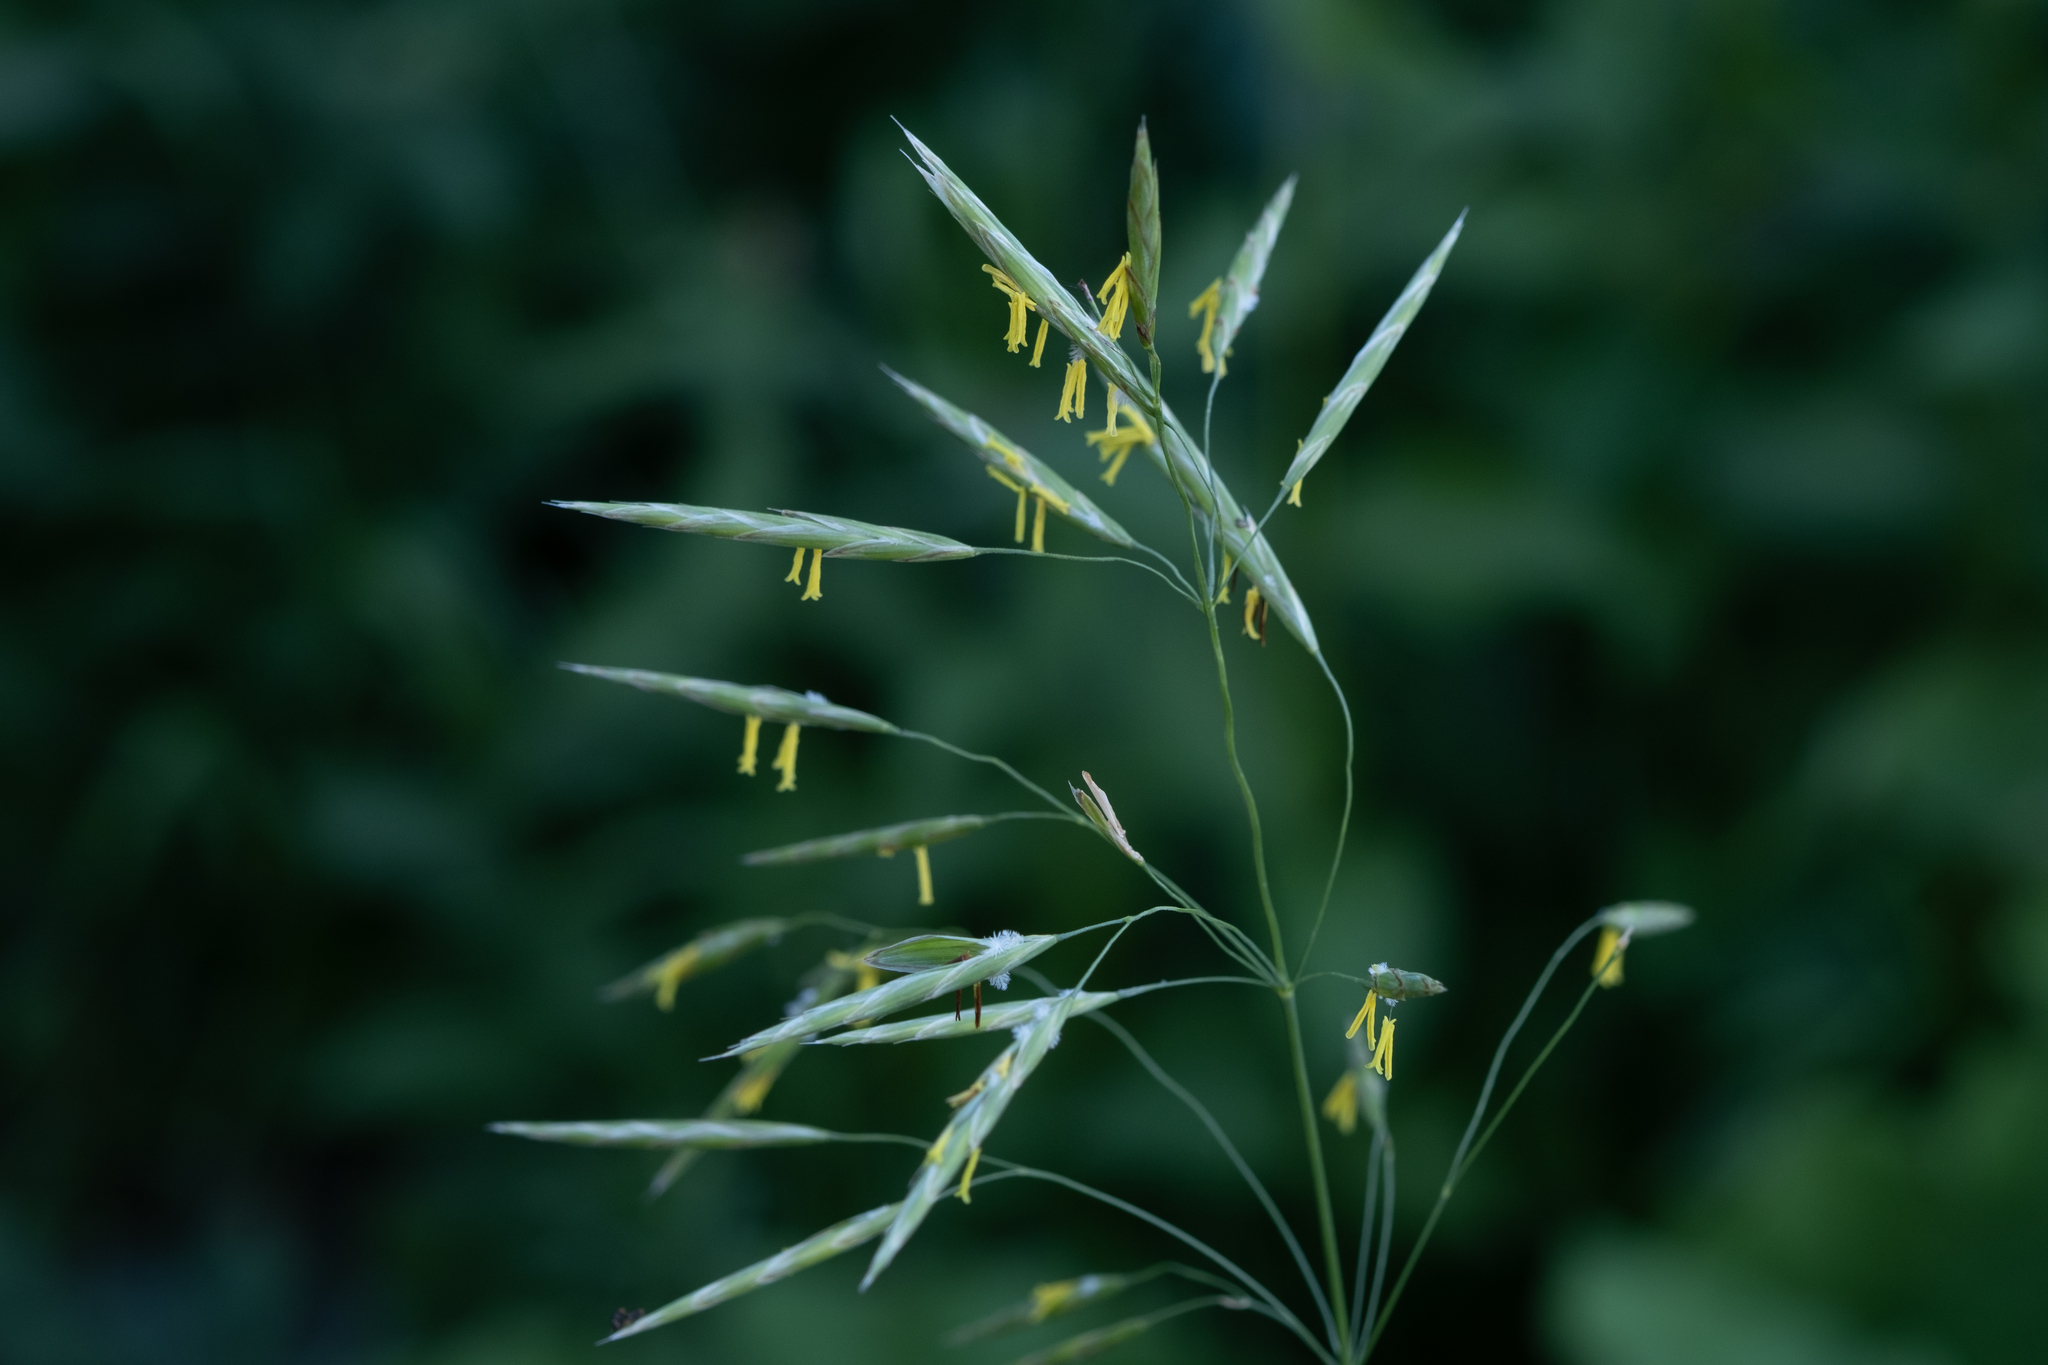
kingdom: Plantae
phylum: Tracheophyta
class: Liliopsida
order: Poales
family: Poaceae
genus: Bromus
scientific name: Bromus inermis
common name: Smooth brome
